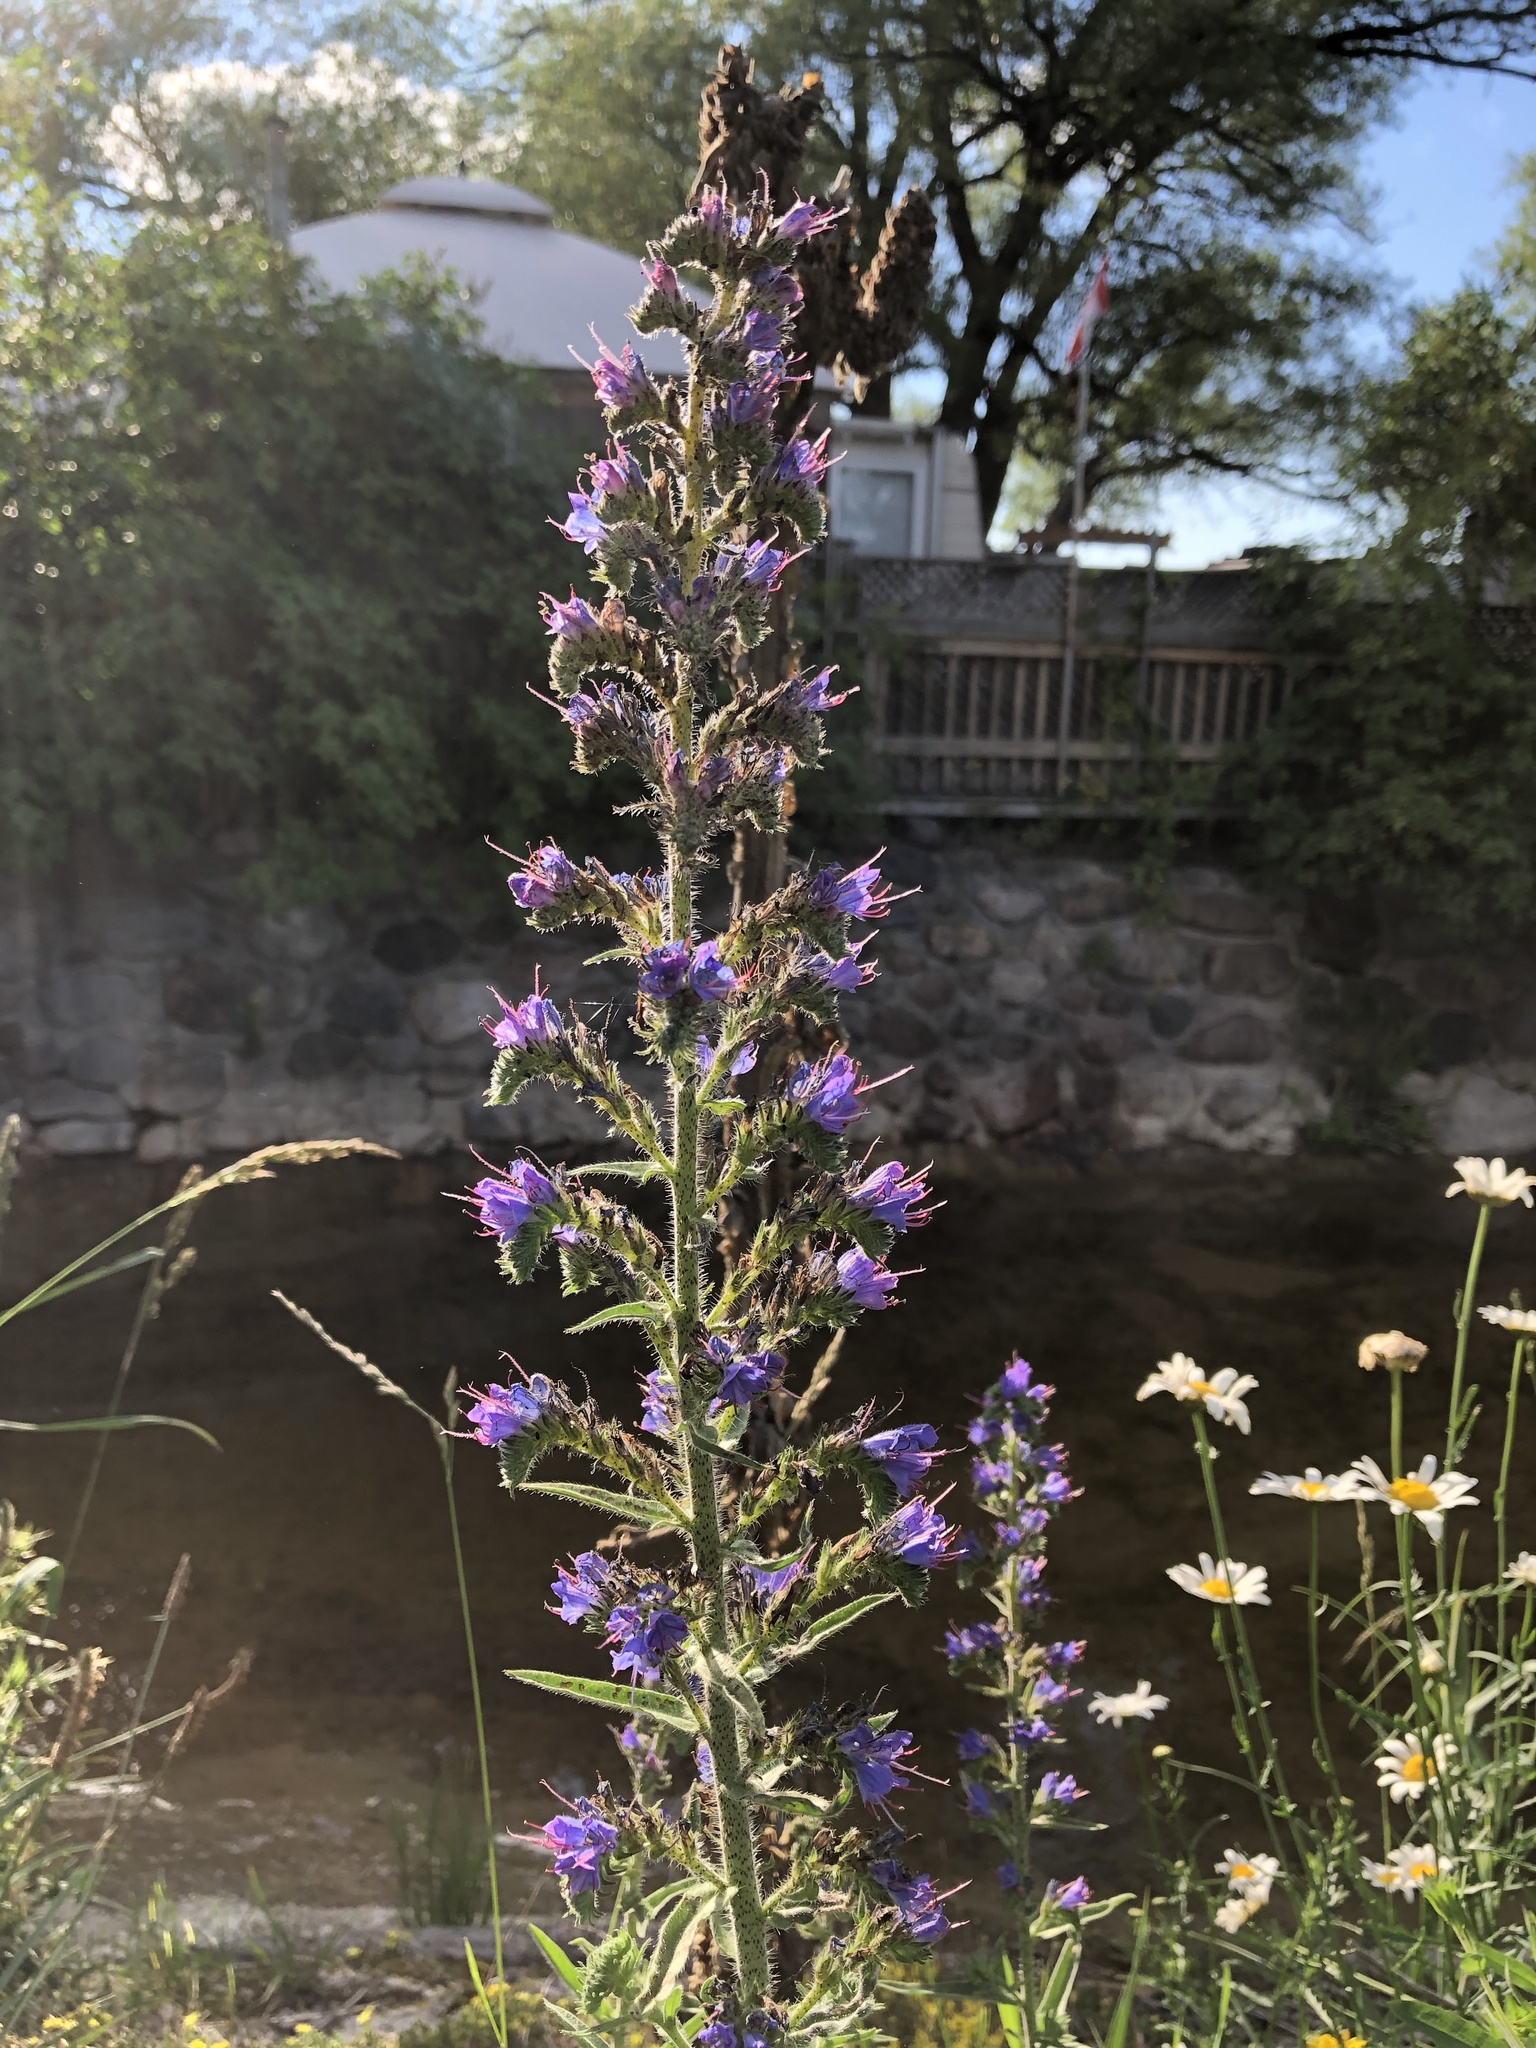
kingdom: Plantae
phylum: Tracheophyta
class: Magnoliopsida
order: Boraginales
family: Boraginaceae
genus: Echium
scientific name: Echium vulgare
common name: Common viper's bugloss
